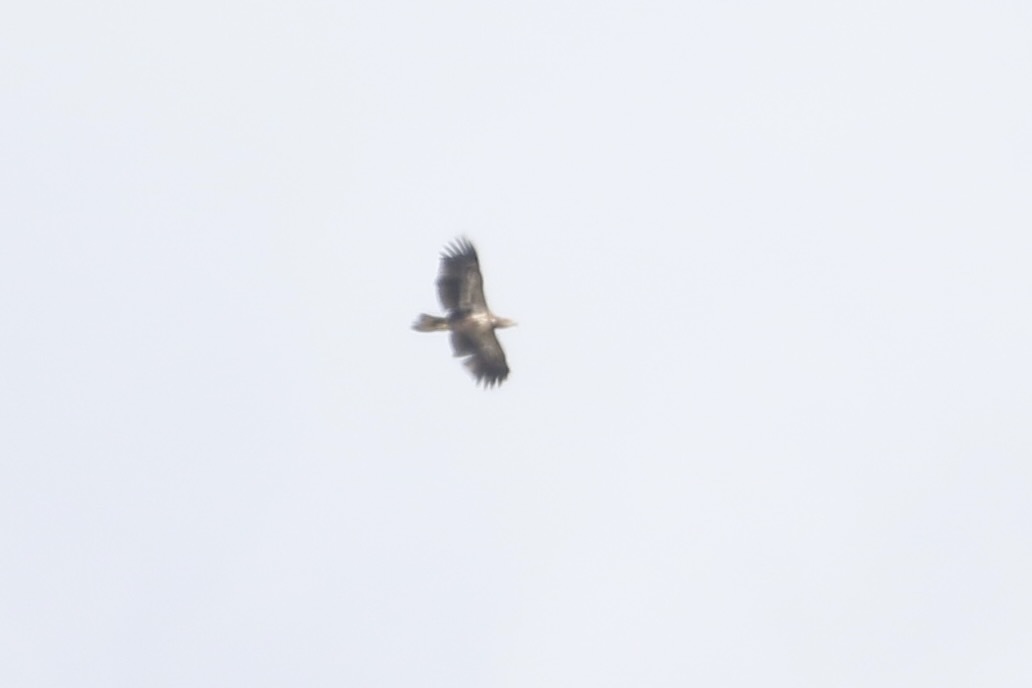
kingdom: Animalia
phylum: Chordata
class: Aves
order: Accipitriformes
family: Accipitridae
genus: Haliaeetus
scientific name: Haliaeetus leucocephalus
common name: Bald eagle
